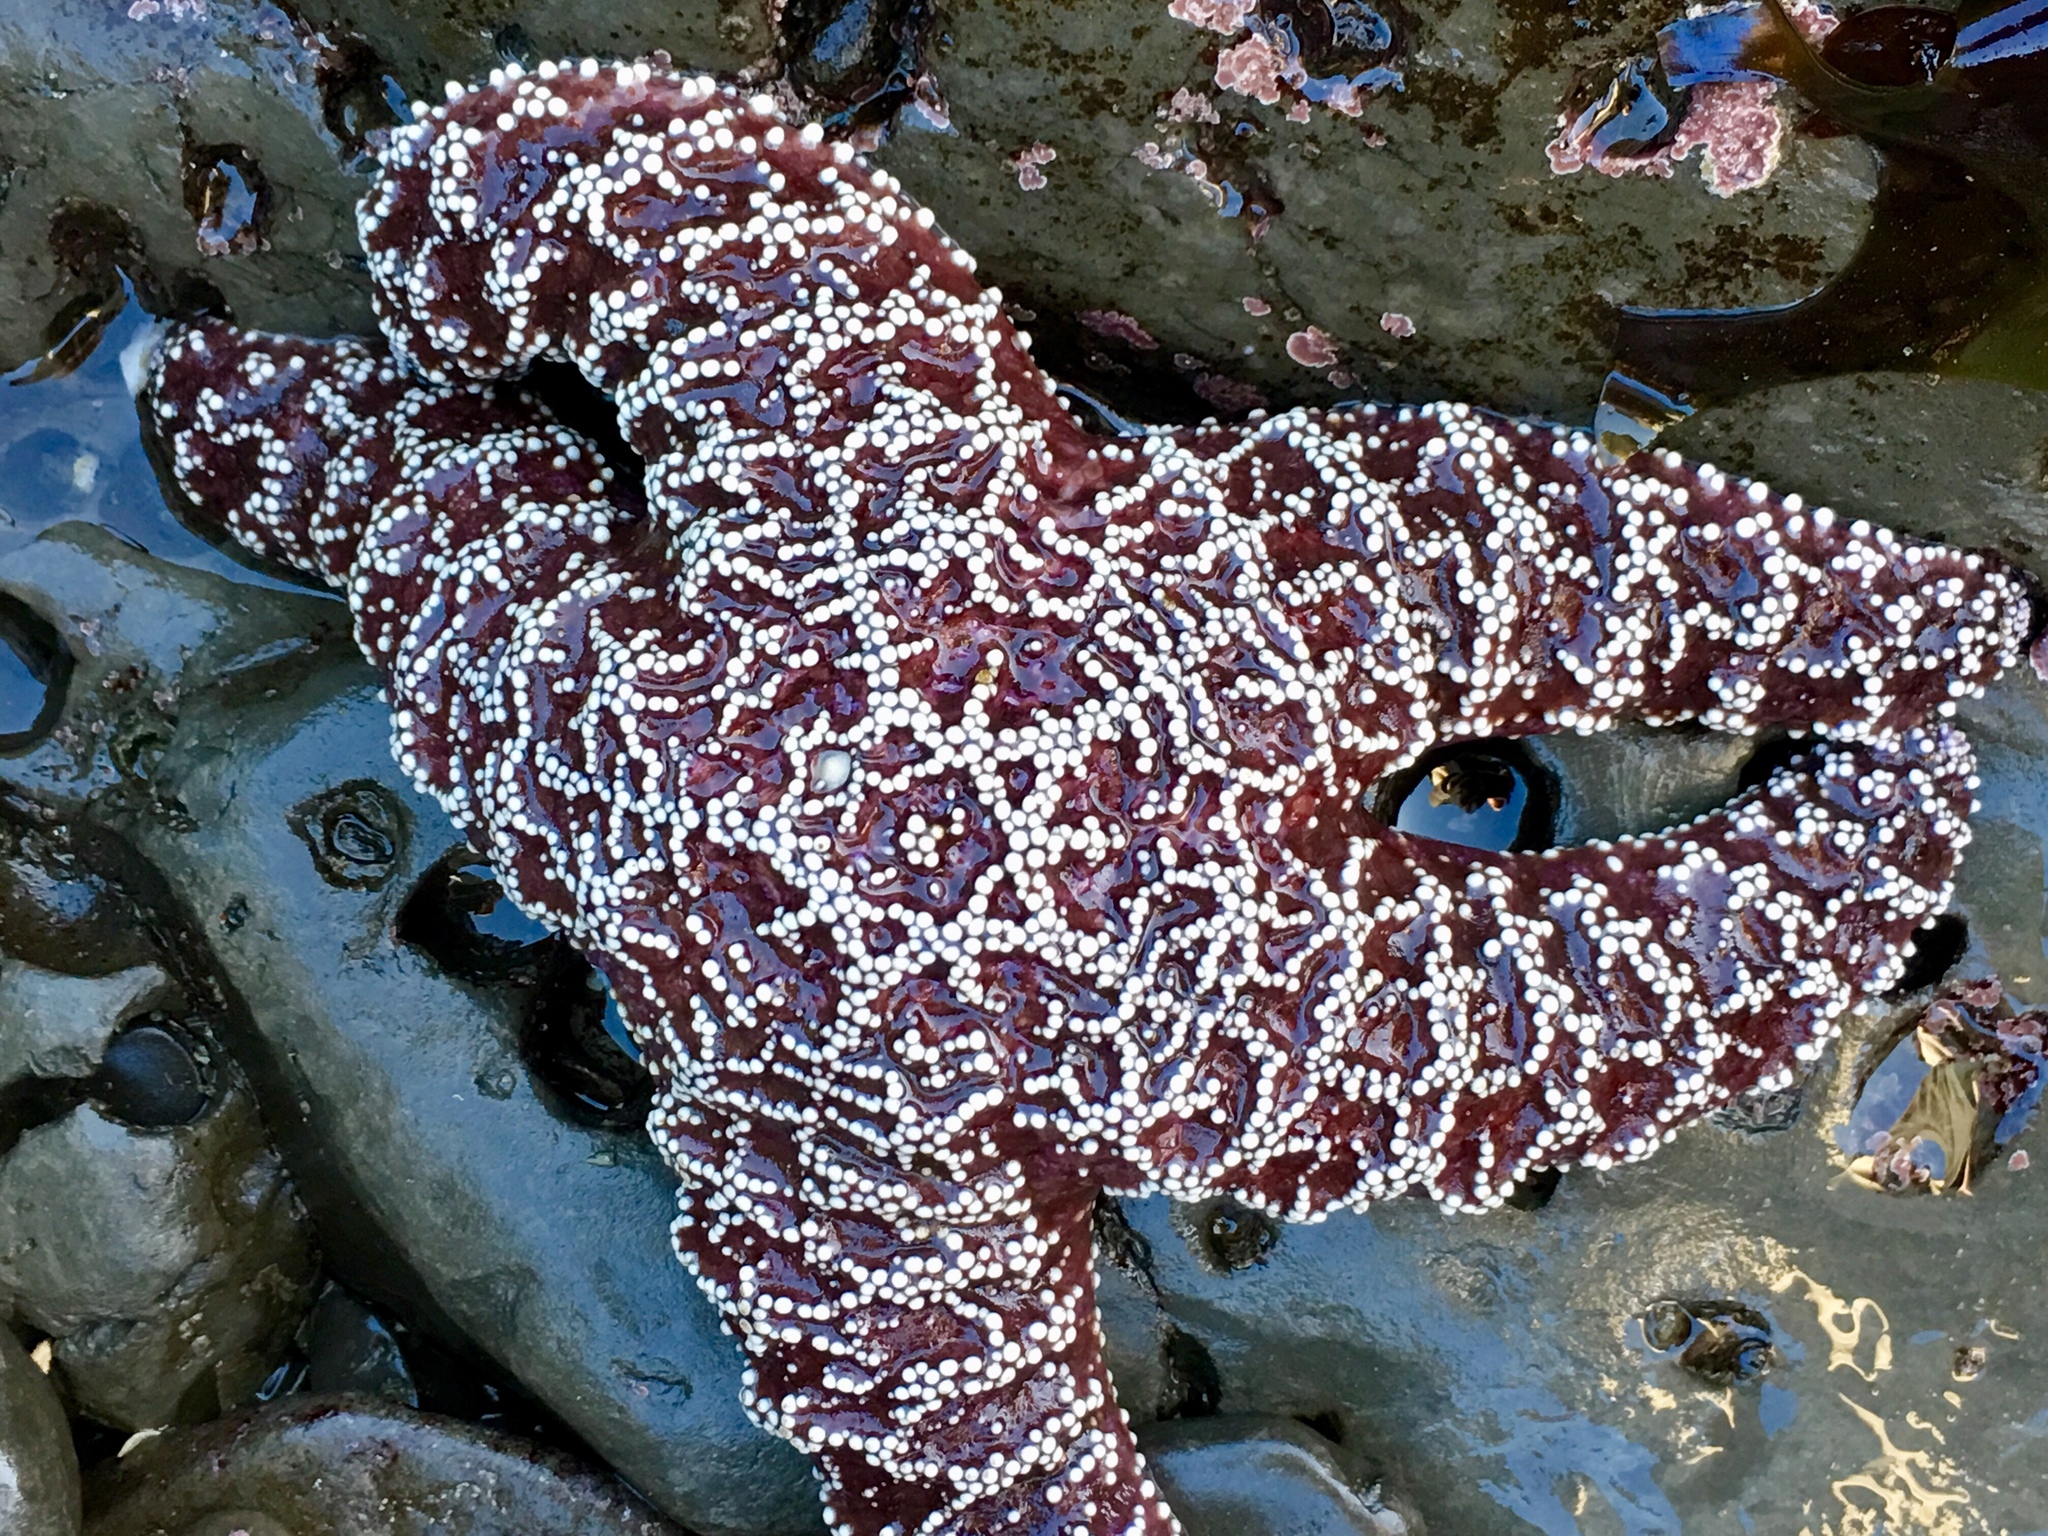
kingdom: Animalia
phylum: Echinodermata
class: Asteroidea
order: Forcipulatida
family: Asteriidae
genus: Pisaster
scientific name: Pisaster ochraceus
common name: Ochre stars
